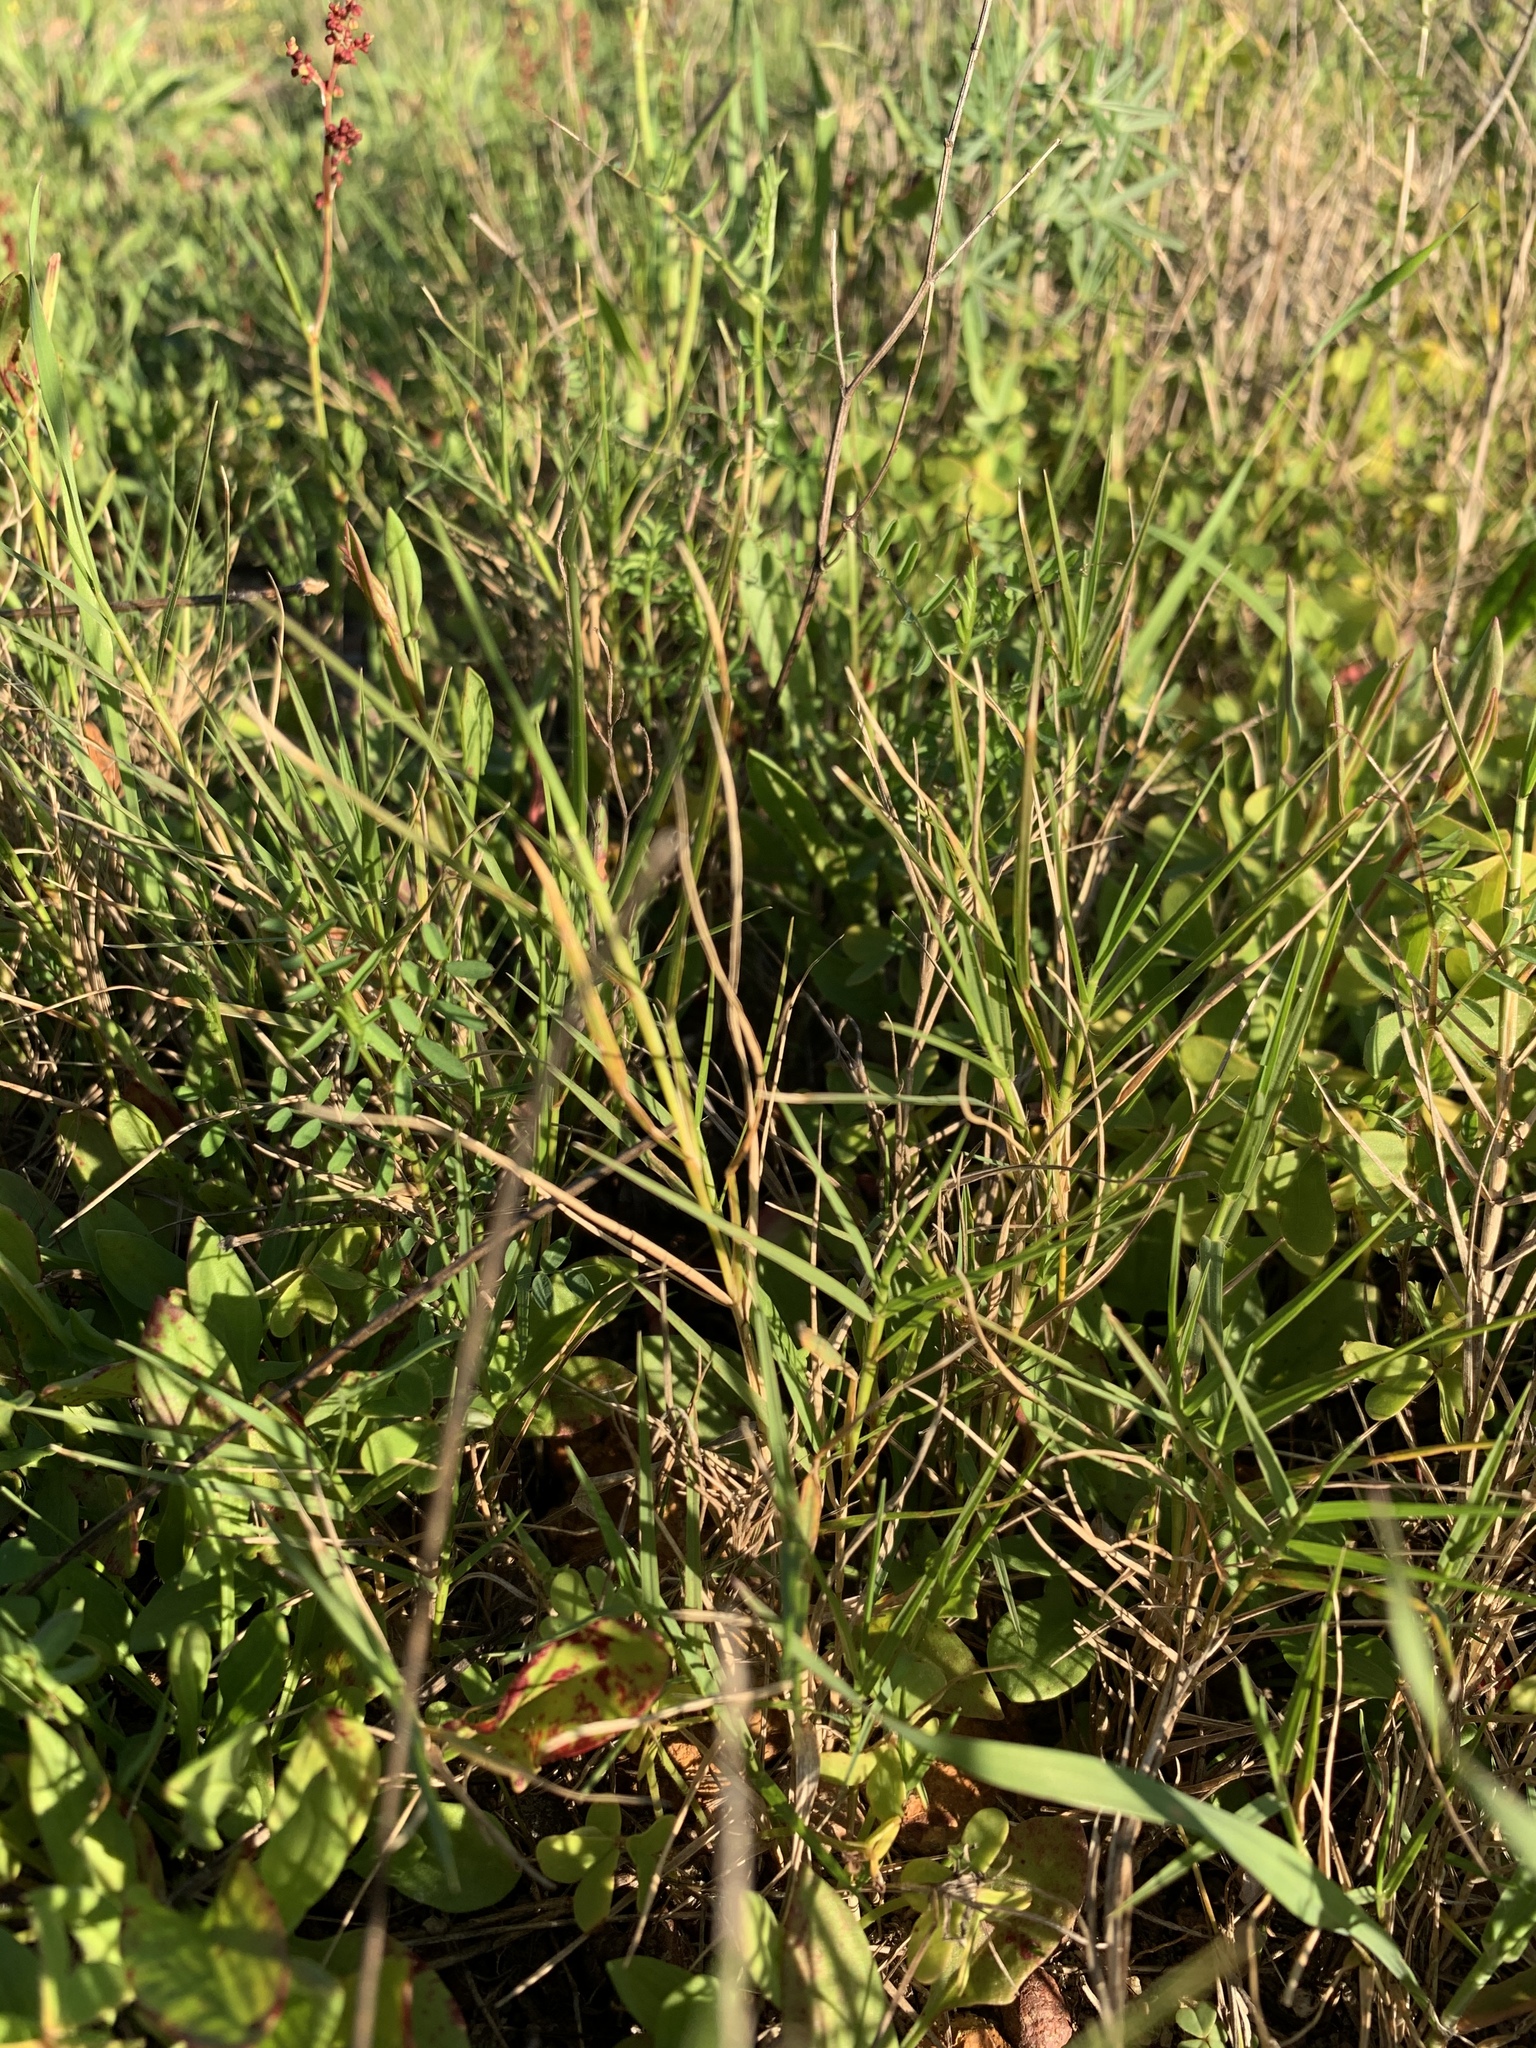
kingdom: Plantae
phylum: Tracheophyta
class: Liliopsida
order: Poales
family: Poaceae
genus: Cynodon
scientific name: Cynodon dactylon
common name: Bermuda grass
